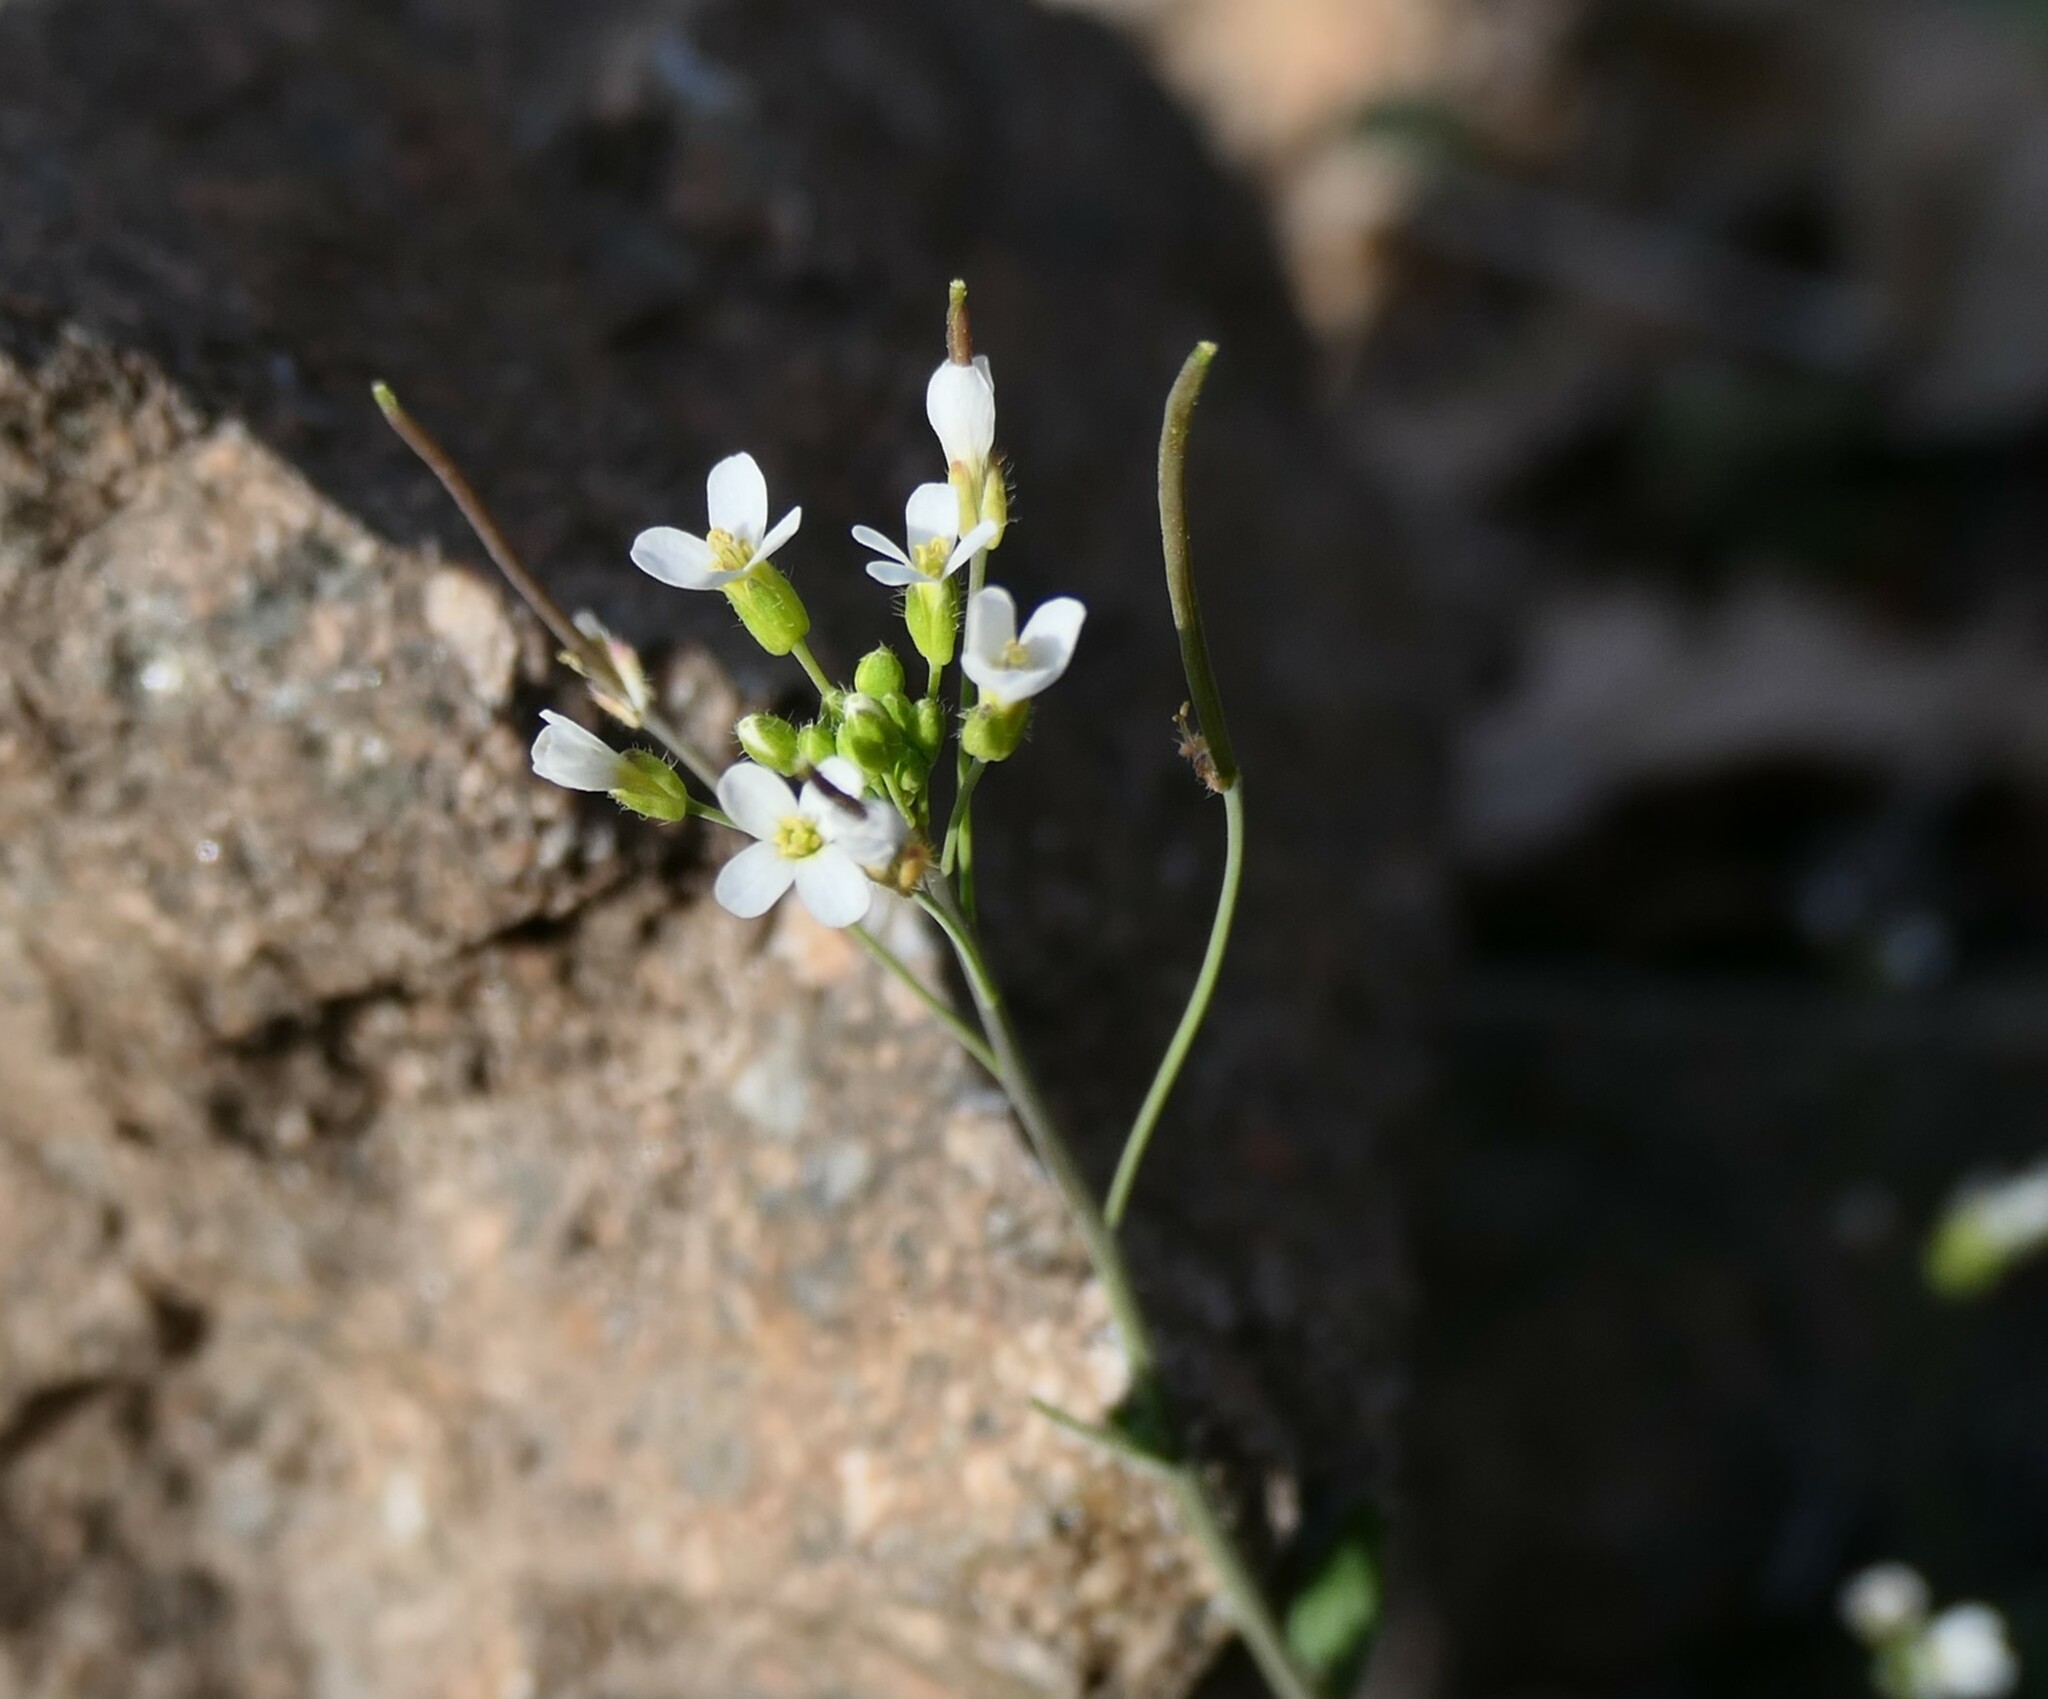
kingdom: Plantae
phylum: Tracheophyta
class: Magnoliopsida
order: Brassicales
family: Brassicaceae
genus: Arabidopsis
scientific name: Arabidopsis thaliana
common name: Thale cress
